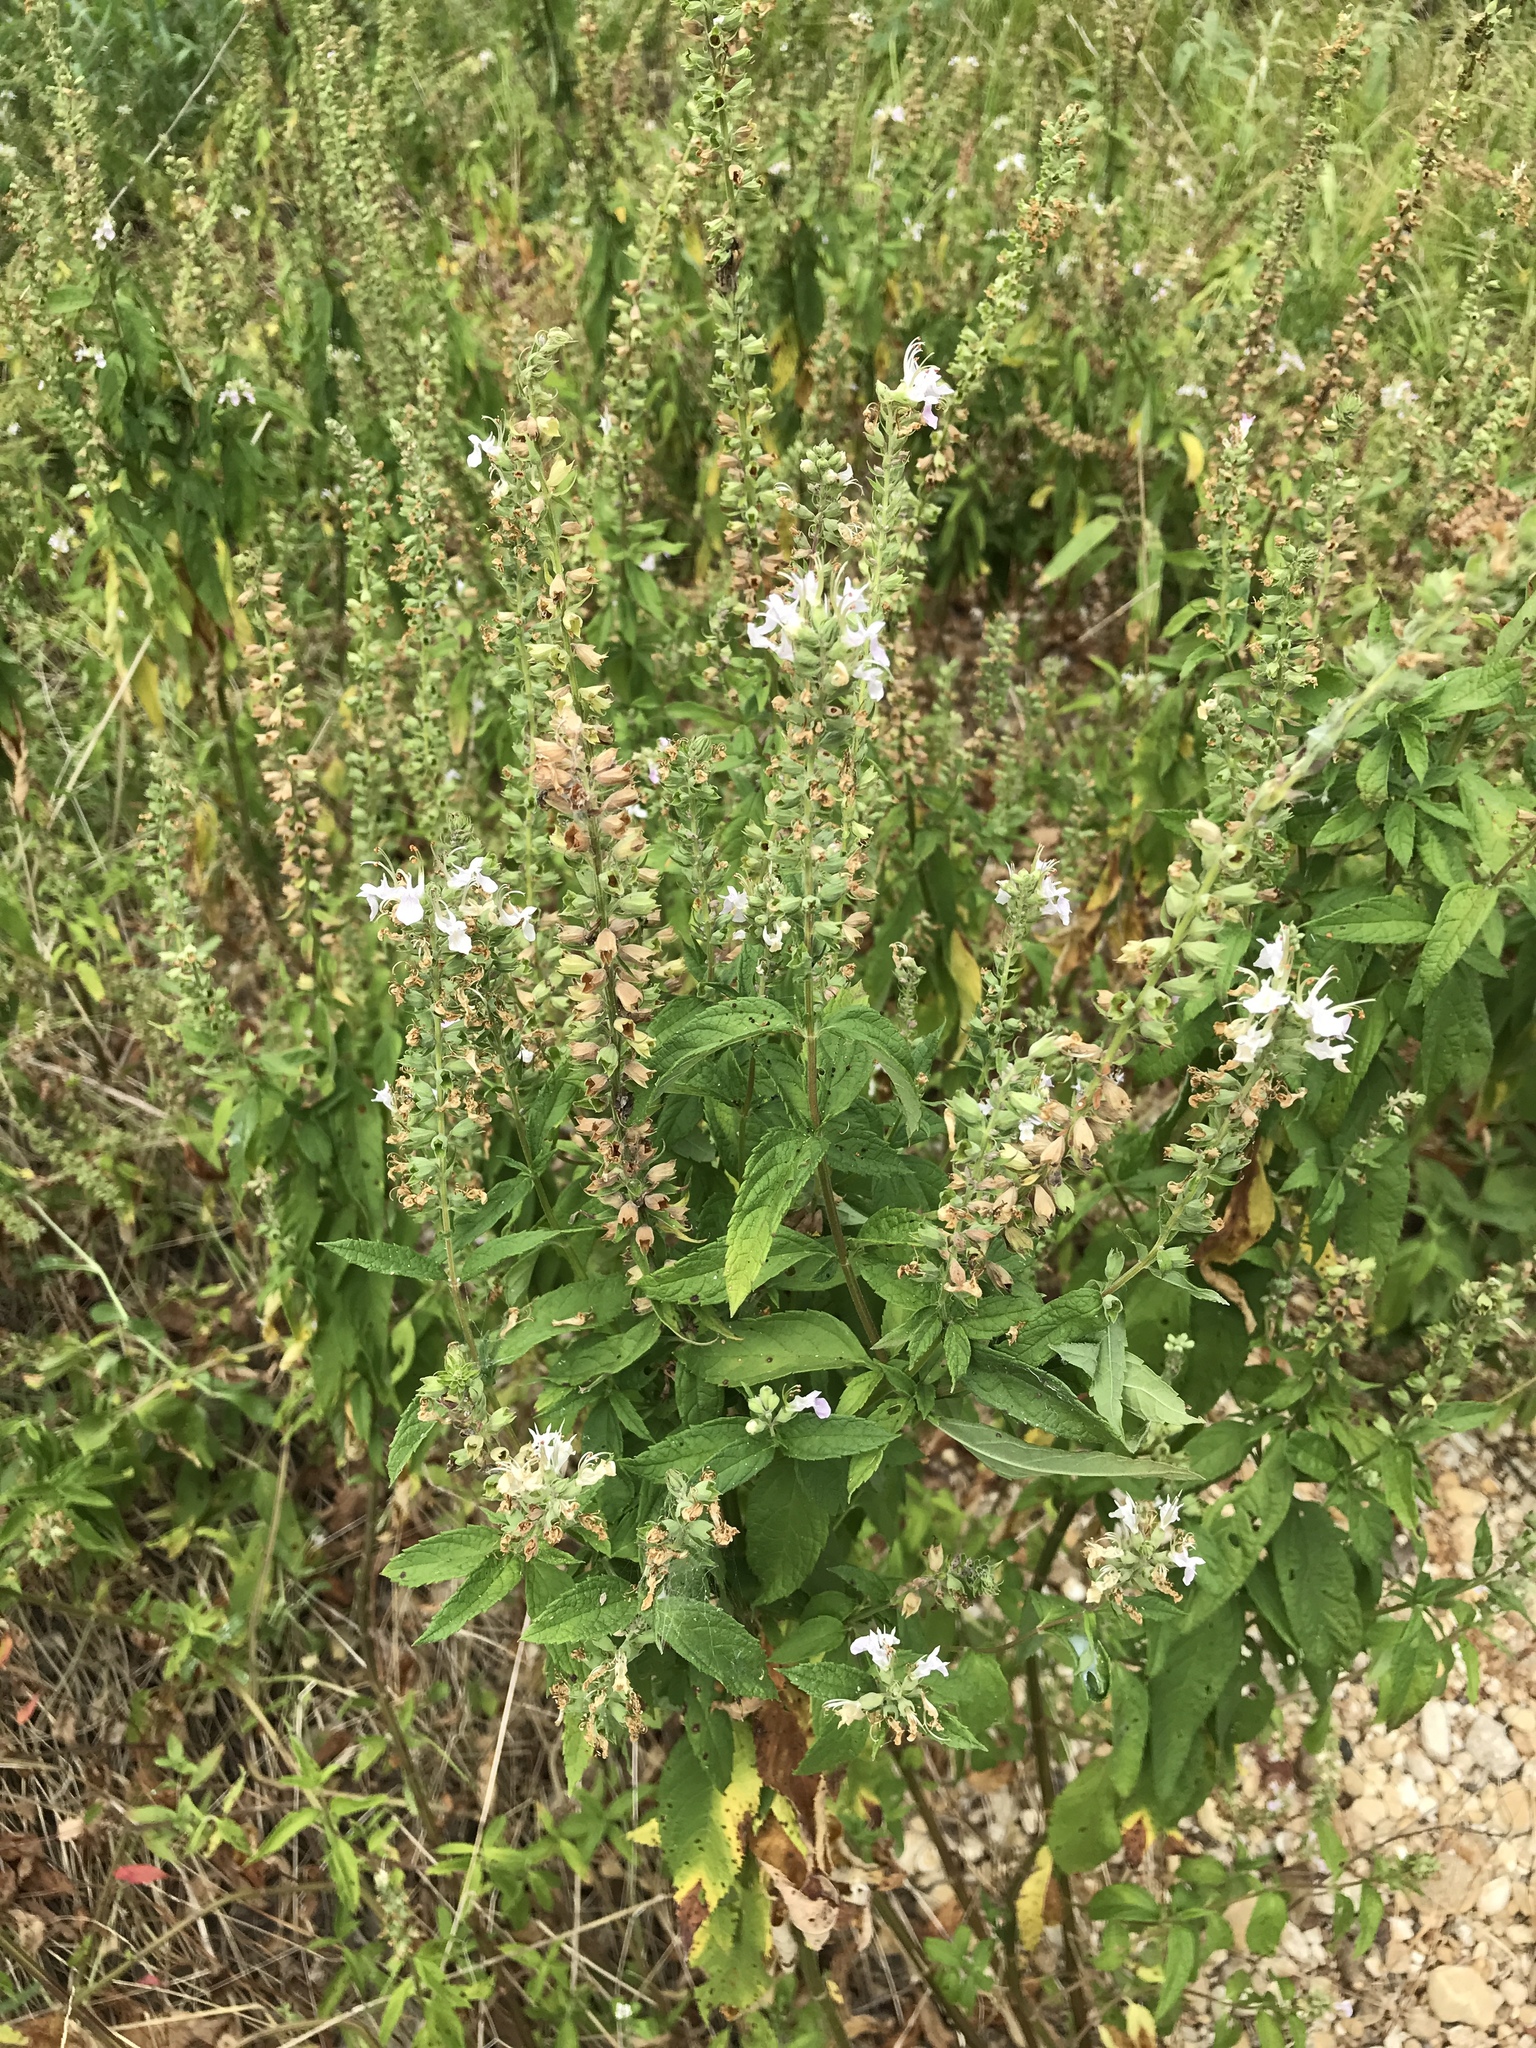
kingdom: Plantae
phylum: Tracheophyta
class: Magnoliopsida
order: Lamiales
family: Lamiaceae
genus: Teucrium
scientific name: Teucrium canadense
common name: American germander
